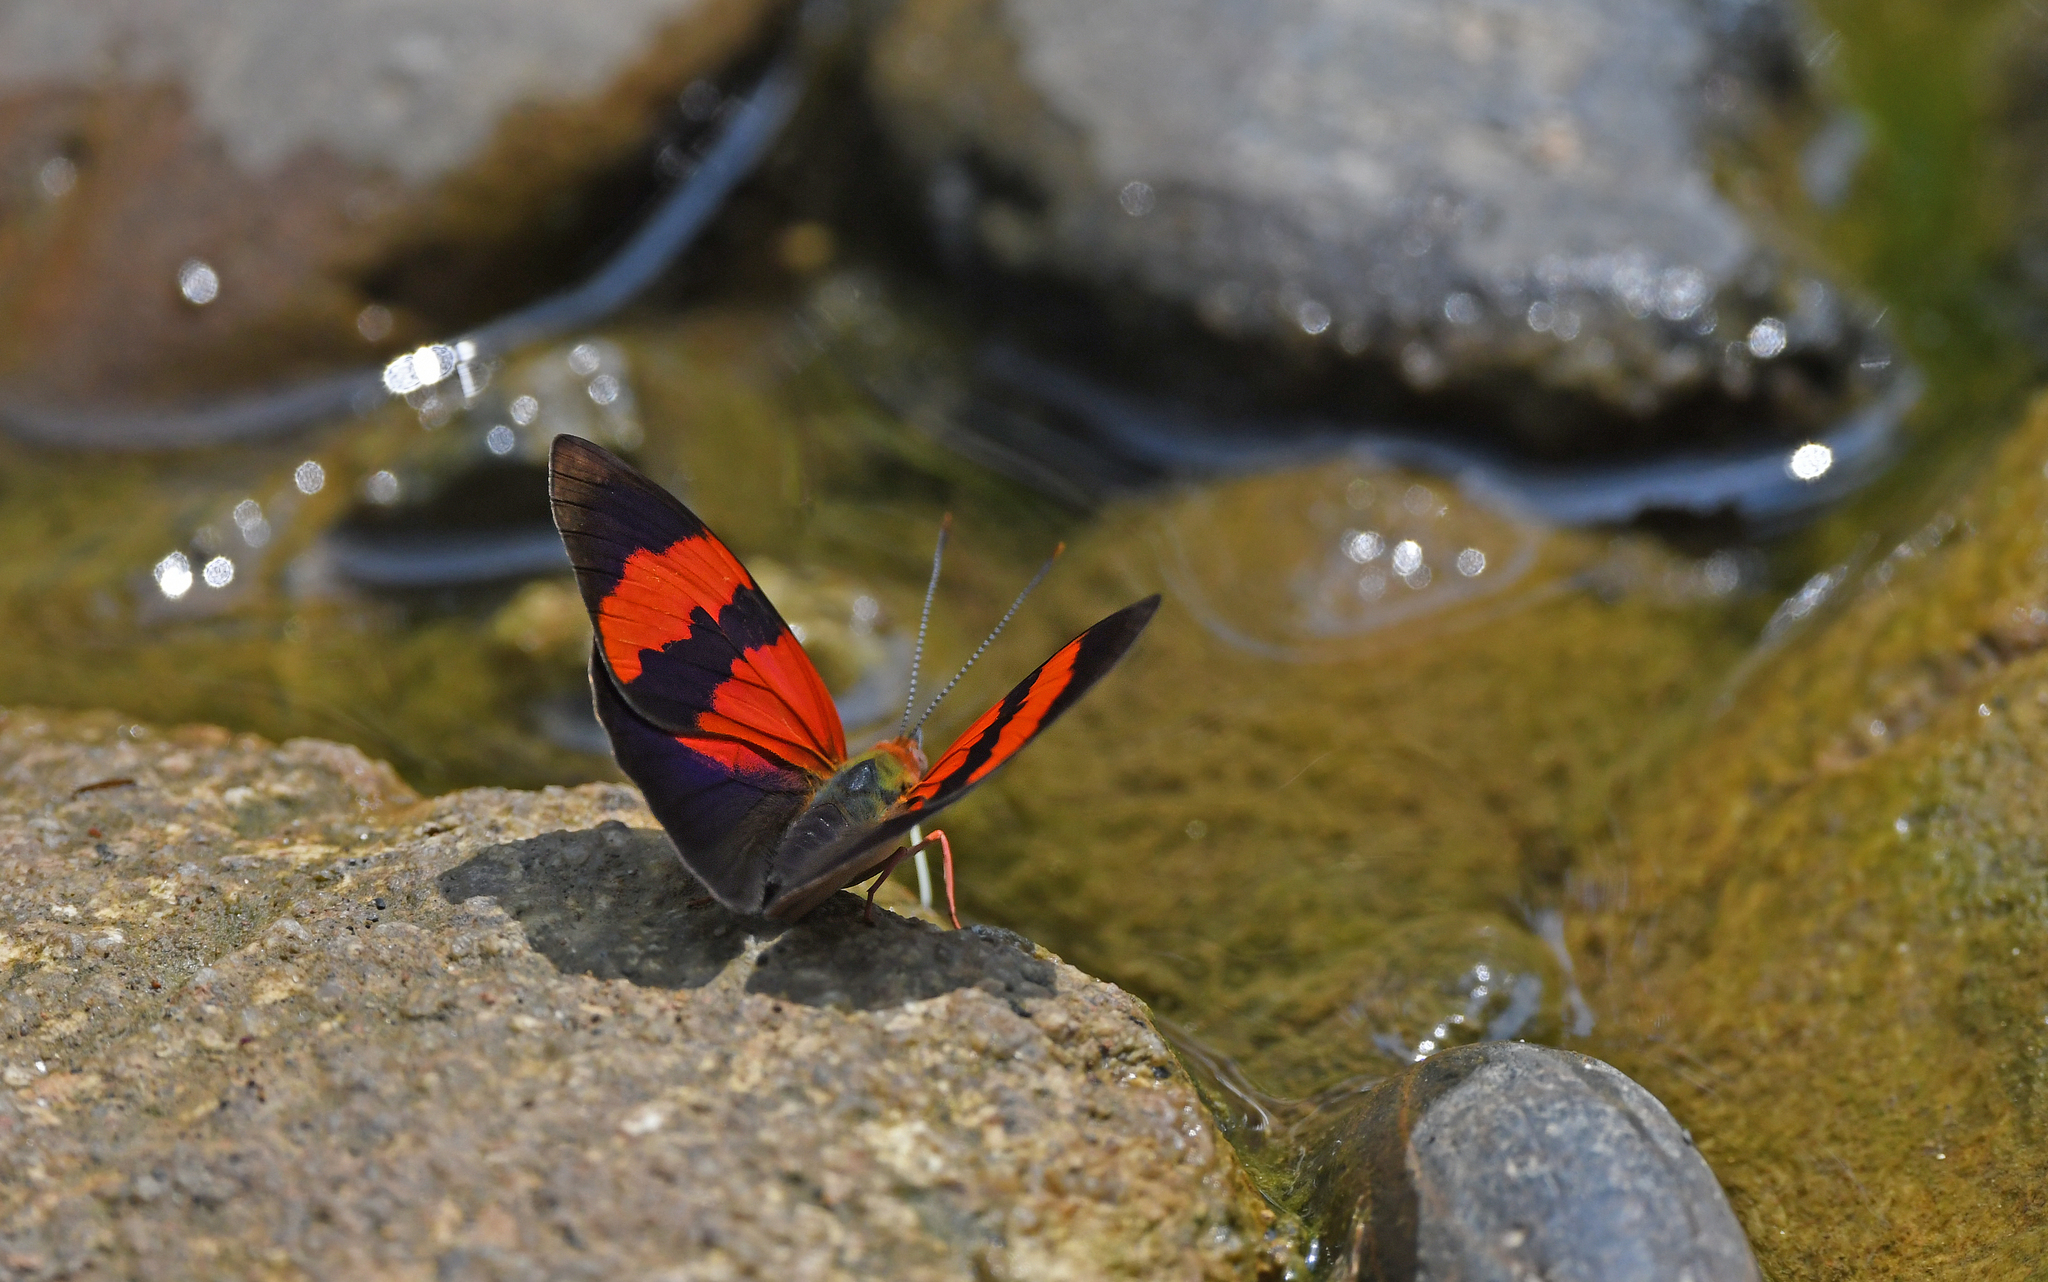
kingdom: Animalia
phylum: Arthropoda
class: Insecta
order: Lepidoptera
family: Nymphalidae
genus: Temenis
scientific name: Temenis pulchra
